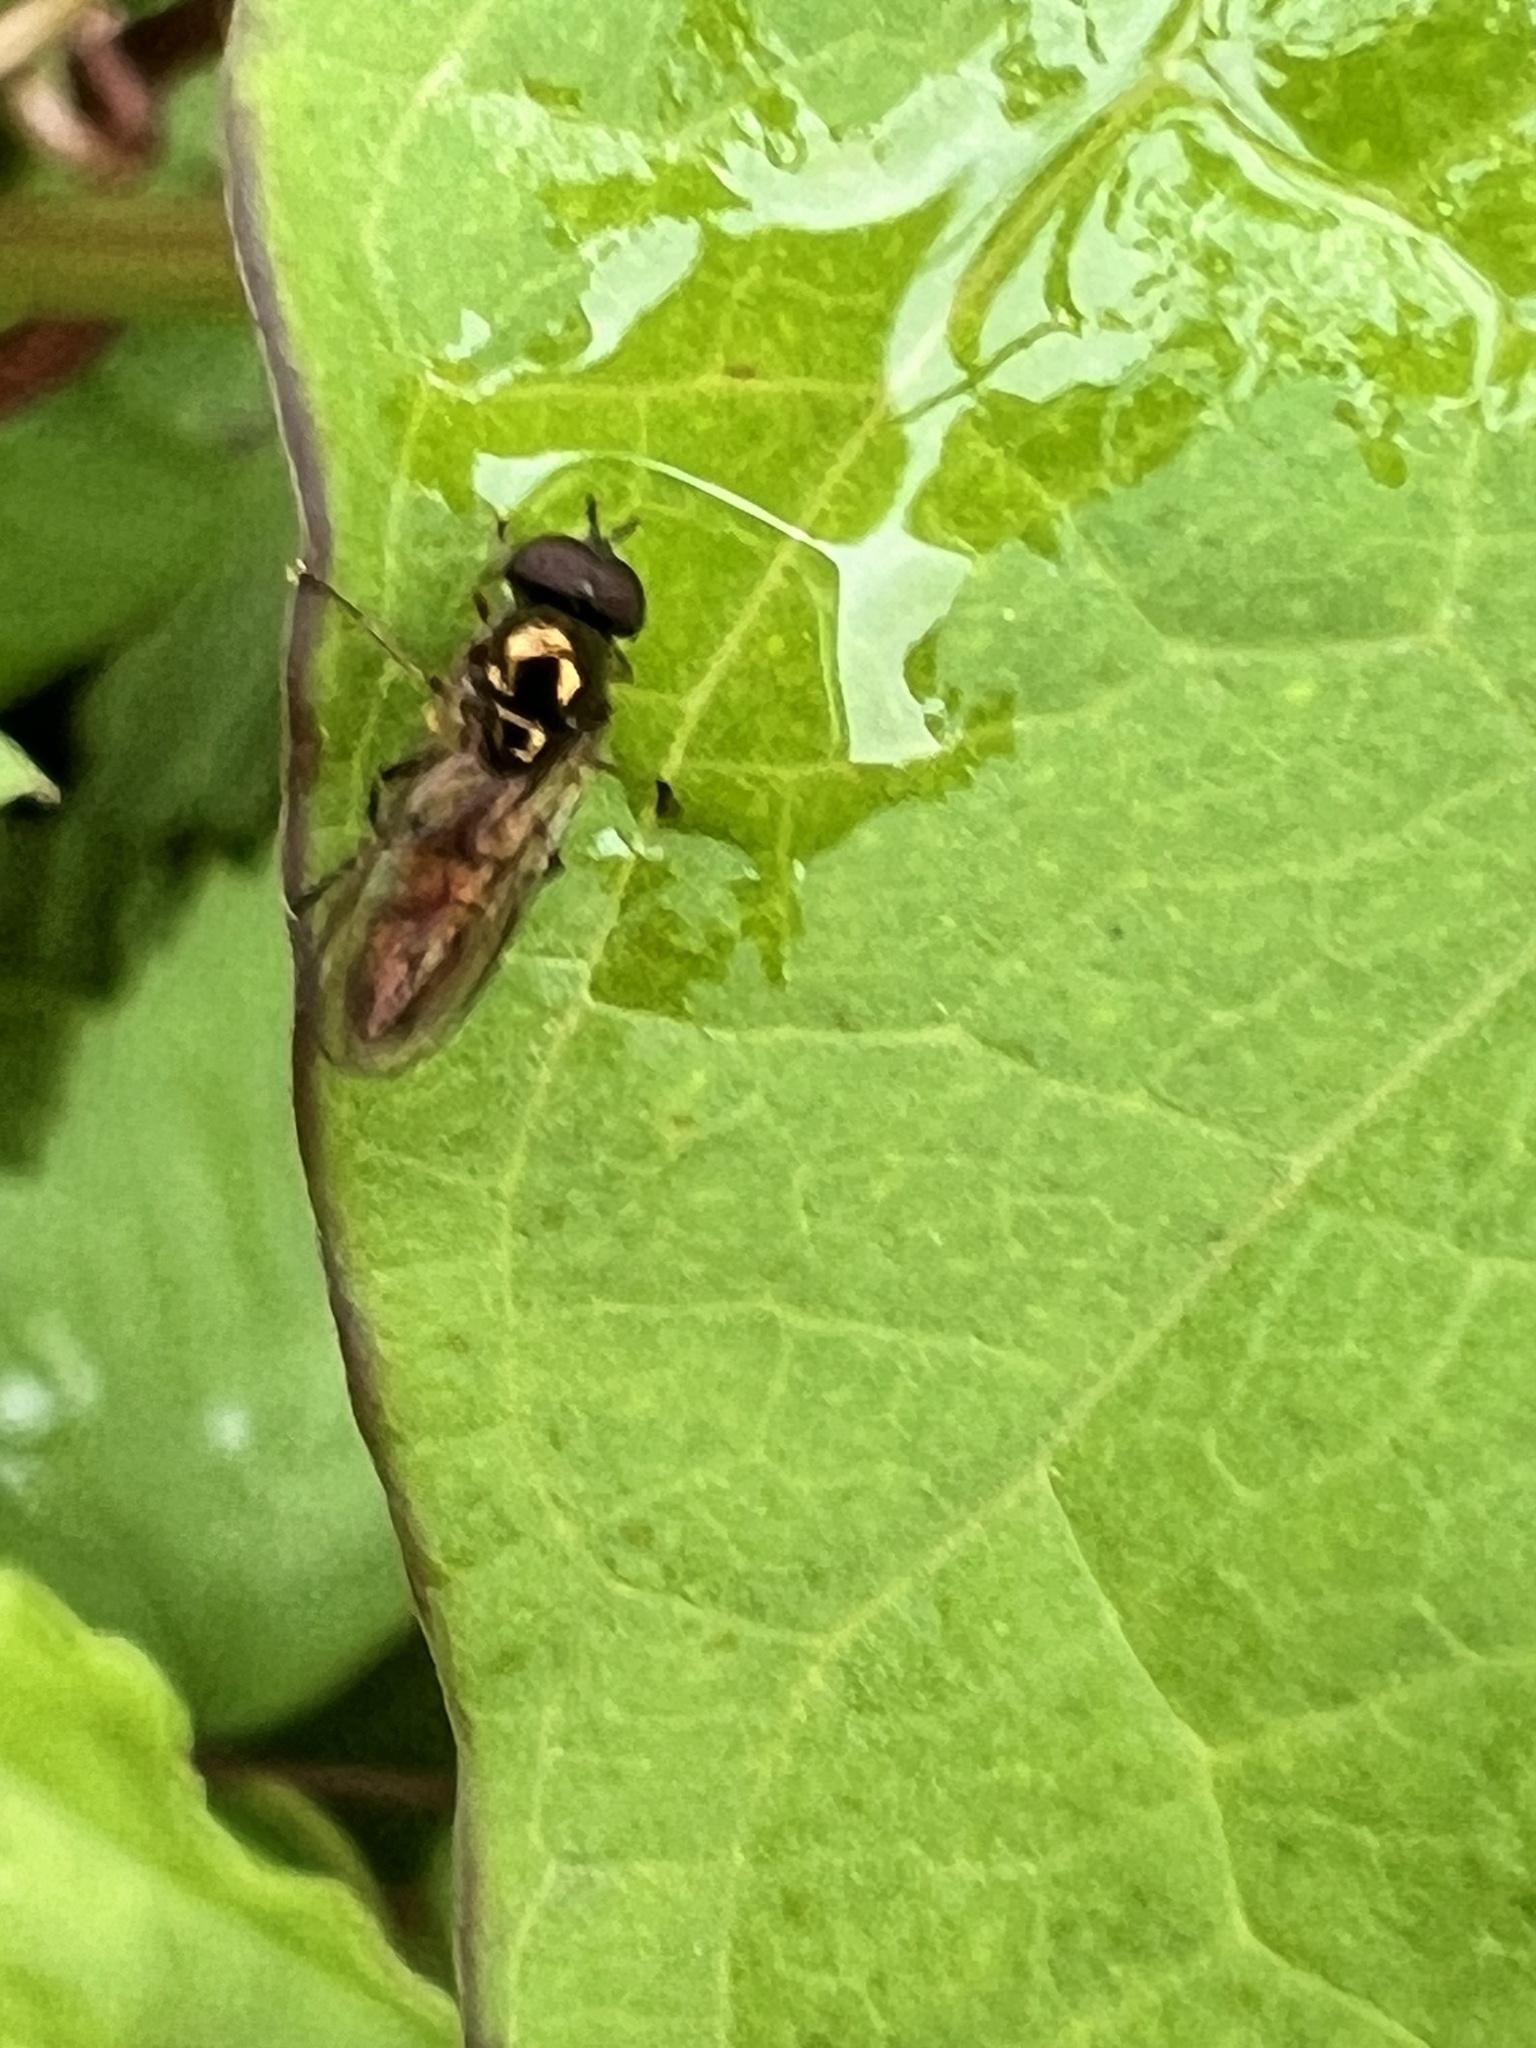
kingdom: Animalia
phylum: Arthropoda
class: Insecta
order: Diptera
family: Syrphidae
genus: Melanostoma
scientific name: Melanostoma fasciatum
